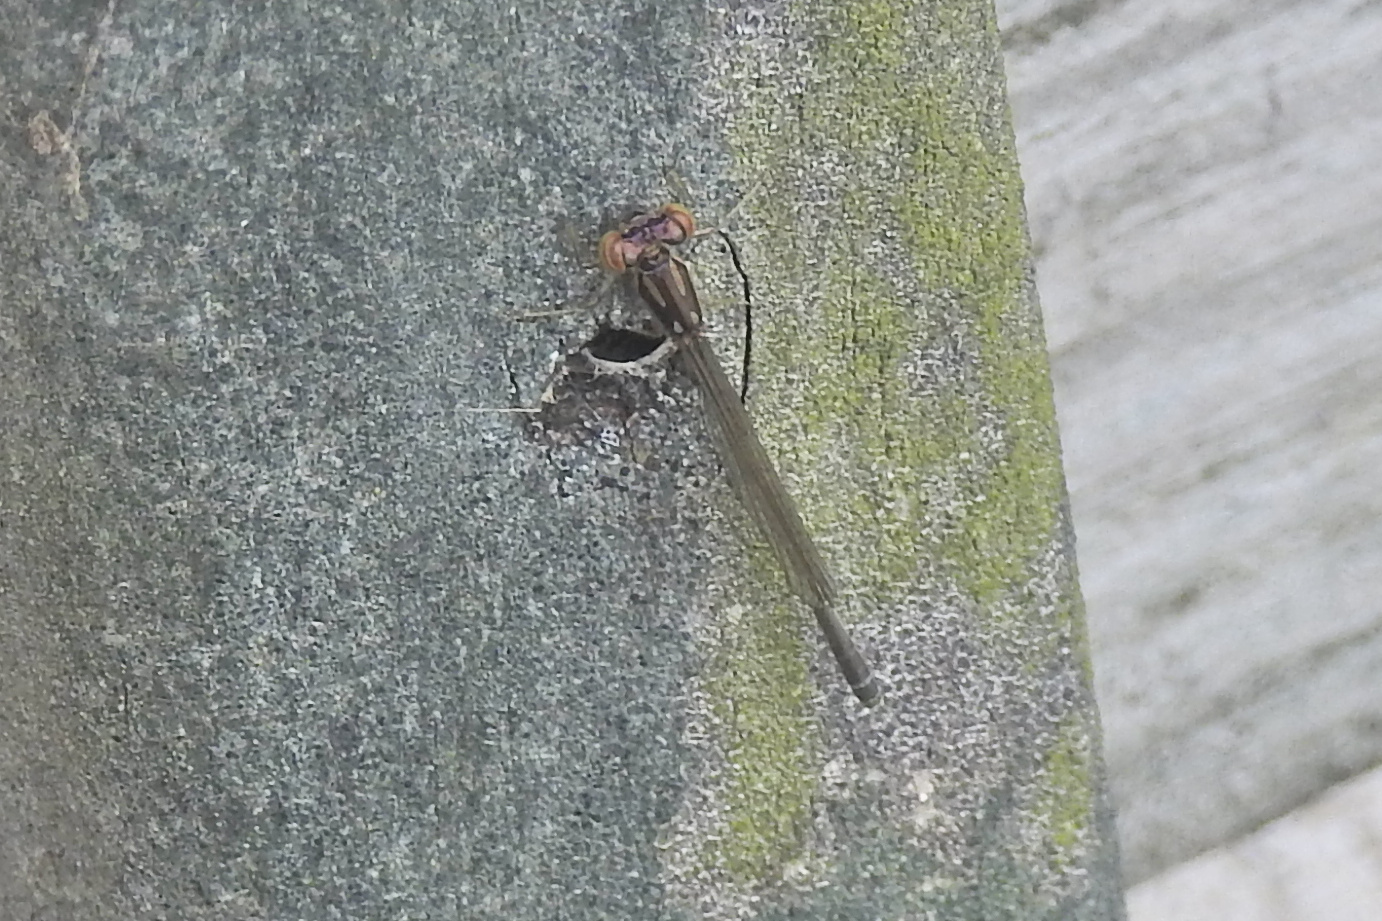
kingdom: Animalia
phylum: Arthropoda
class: Insecta
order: Odonata
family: Coenagrionidae
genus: Ischnura
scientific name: Ischnura posita
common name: Fragile forktail
